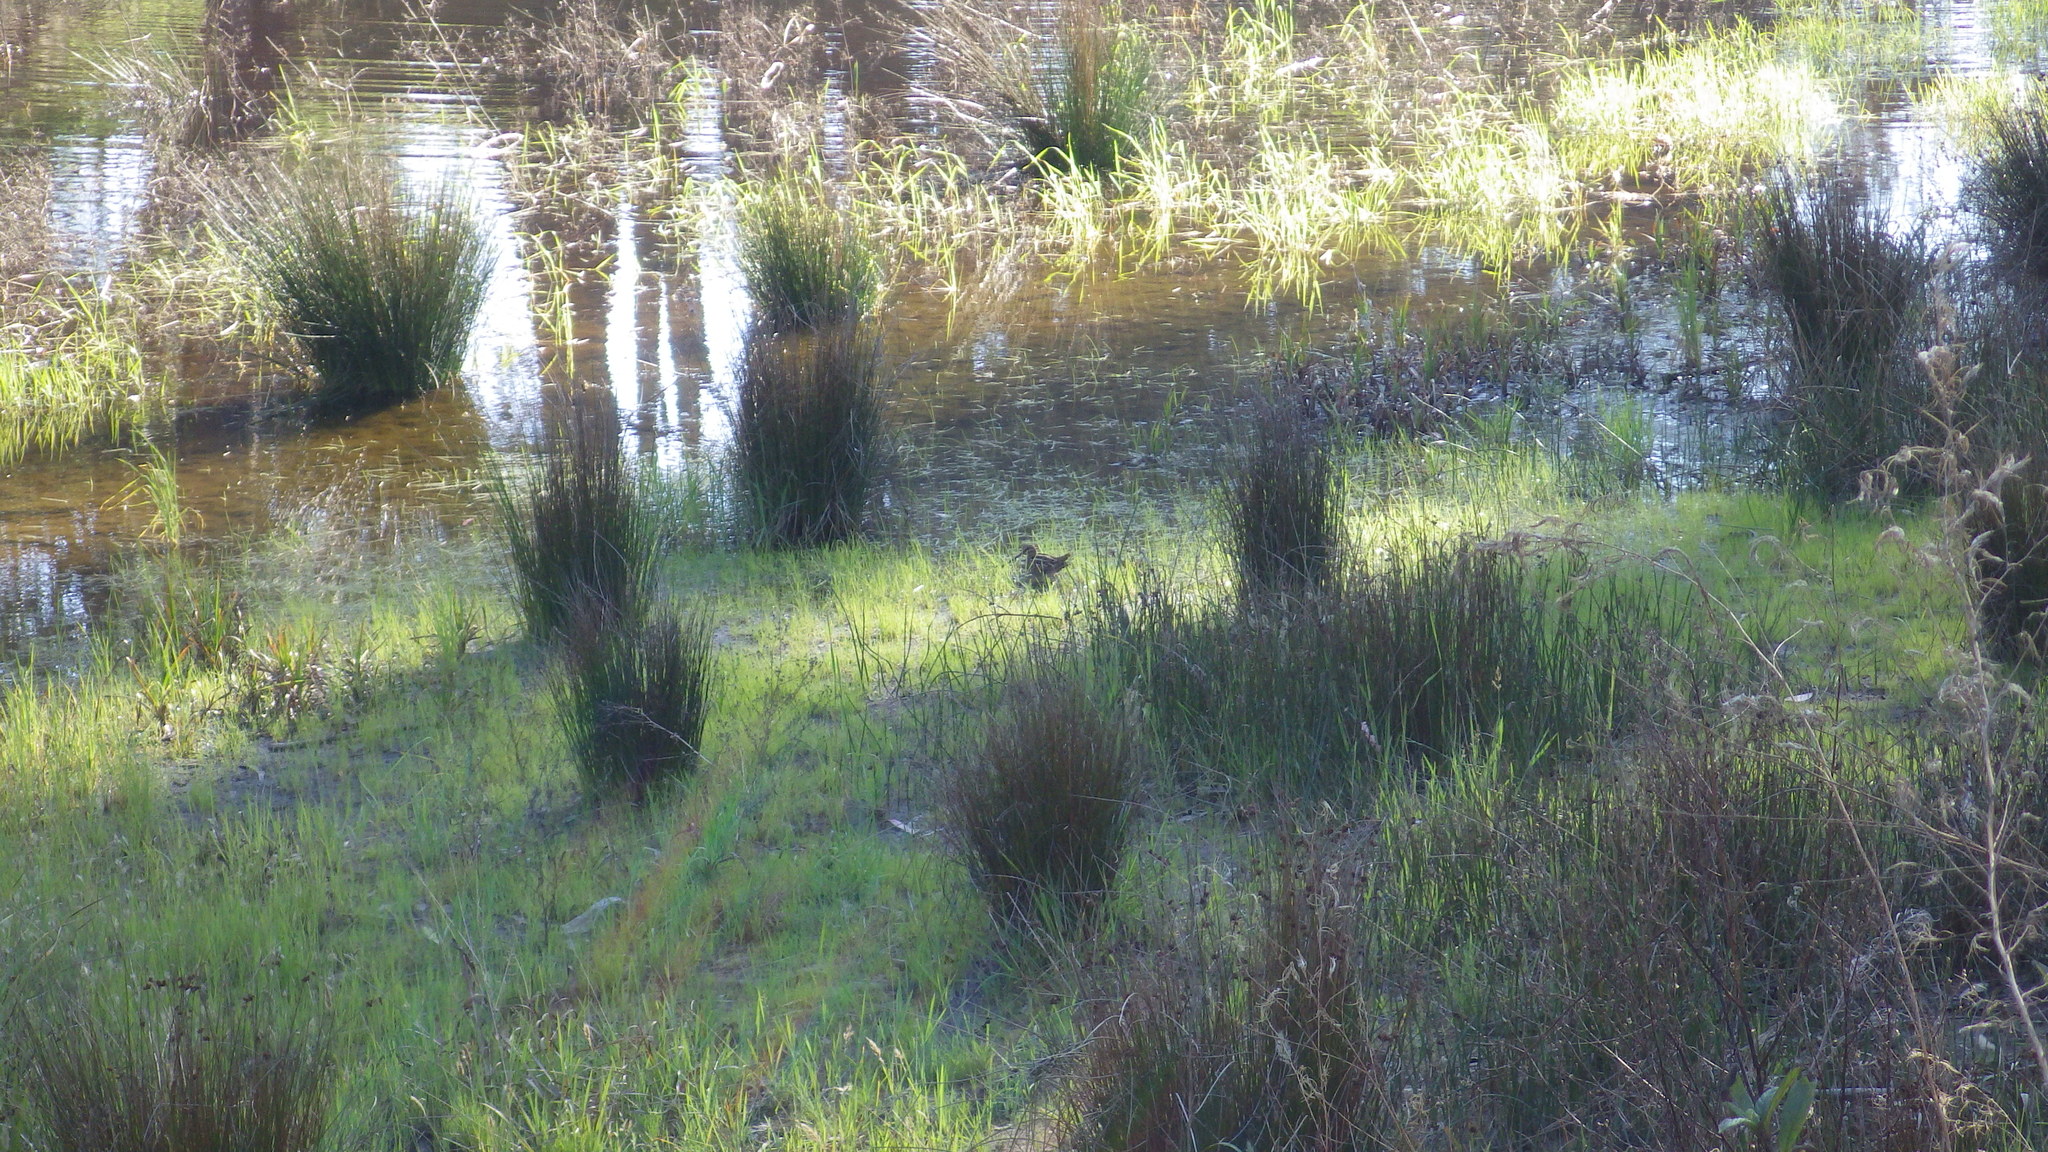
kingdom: Animalia
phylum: Chordata
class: Aves
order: Charadriiformes
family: Scolopacidae
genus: Gallinago
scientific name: Gallinago delicata
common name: Wilson's snipe
